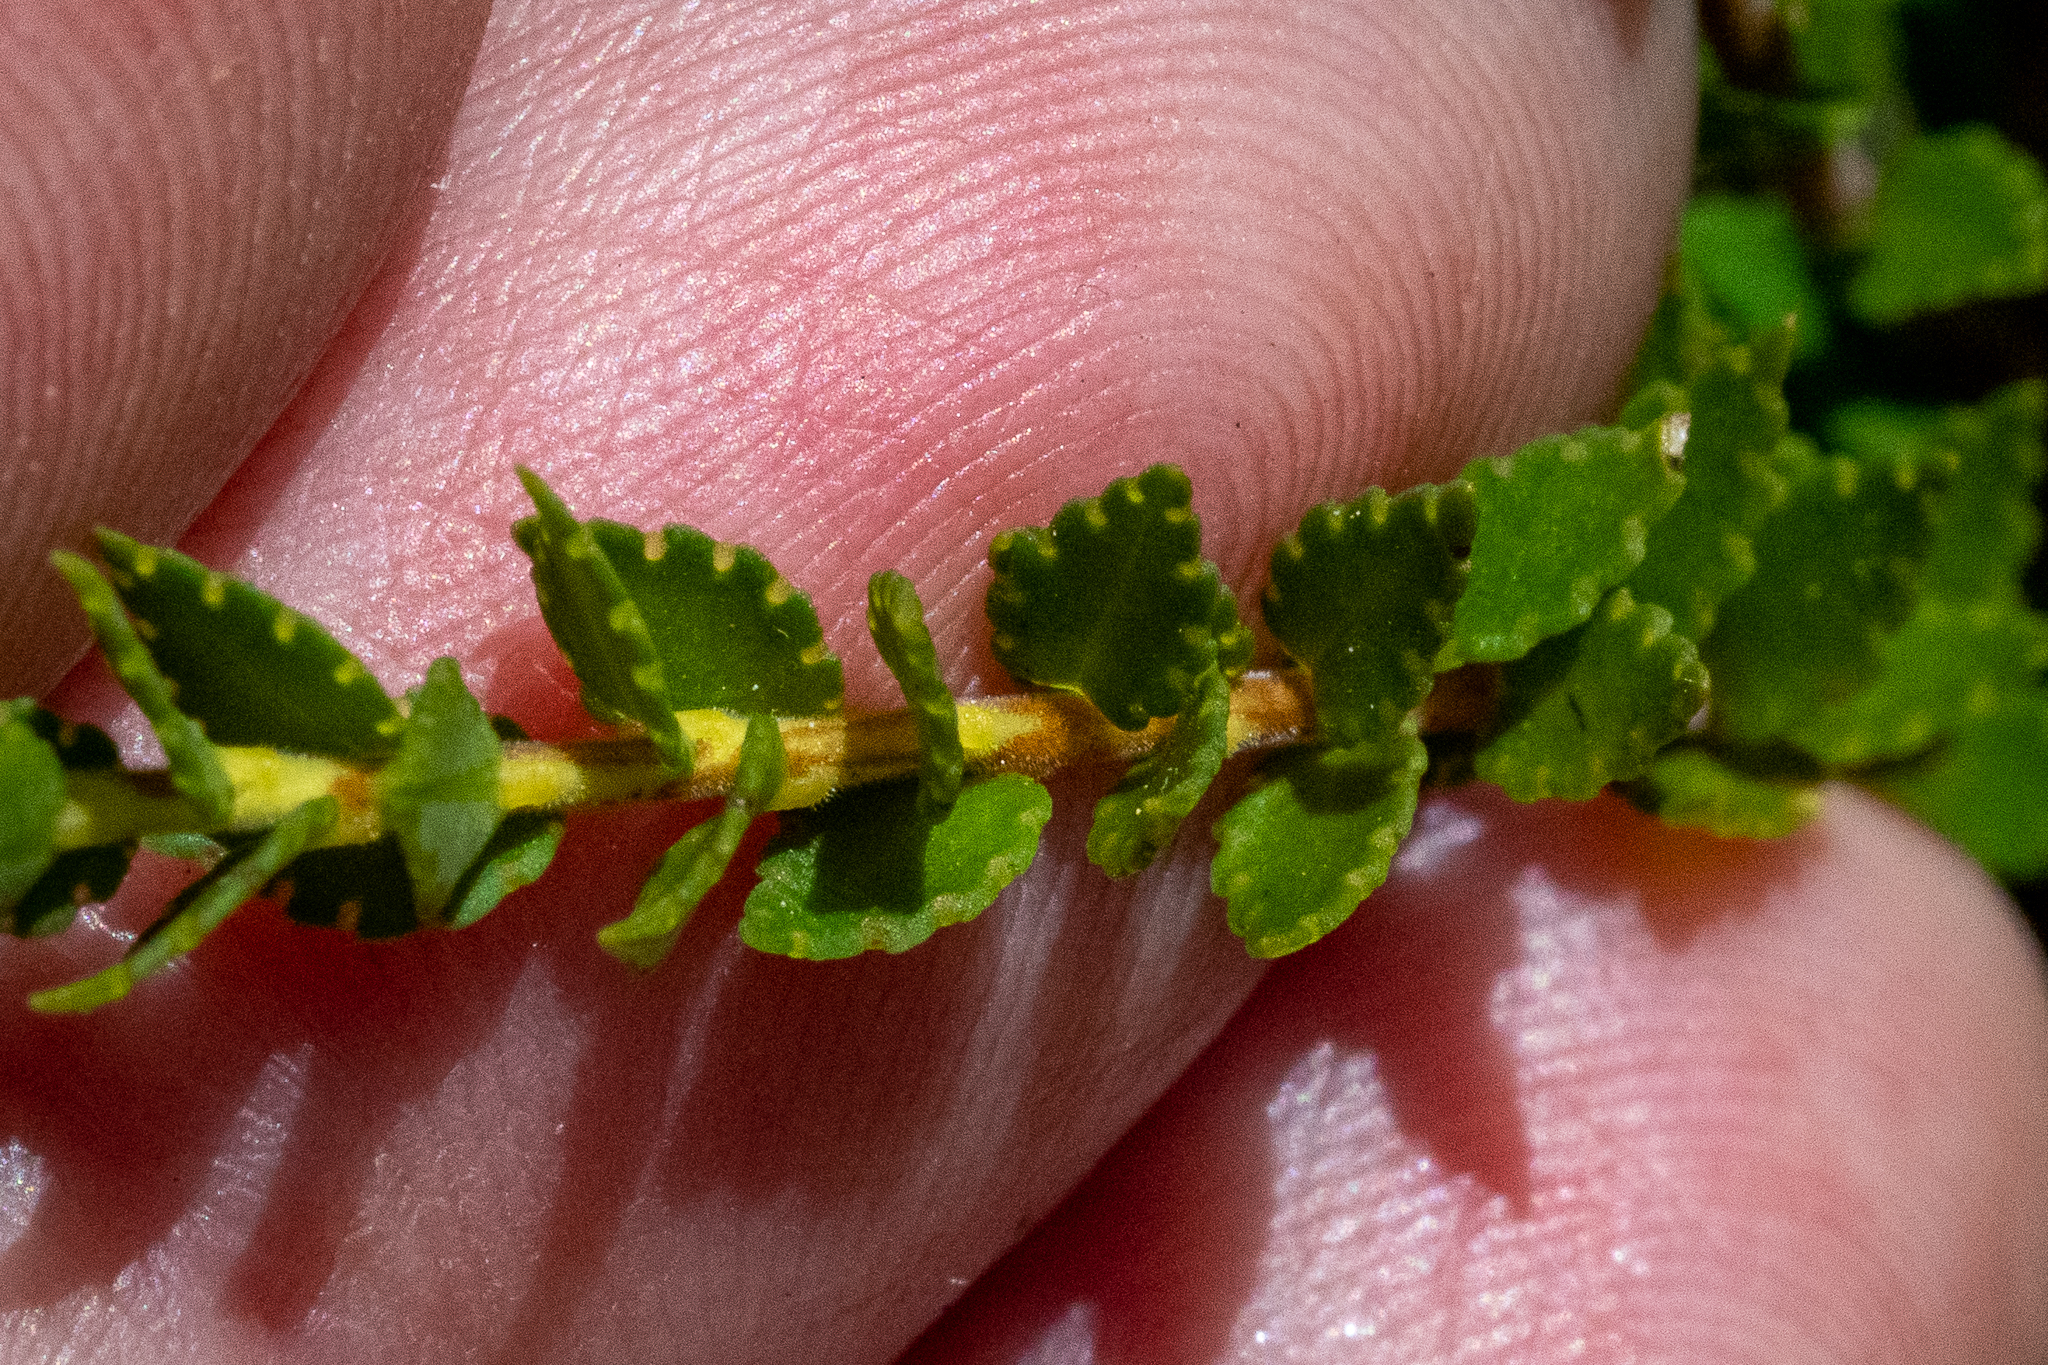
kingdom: Plantae
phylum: Tracheophyta
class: Magnoliopsida
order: Sapindales
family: Rutaceae
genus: Agathosma
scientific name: Agathosma tabularis
